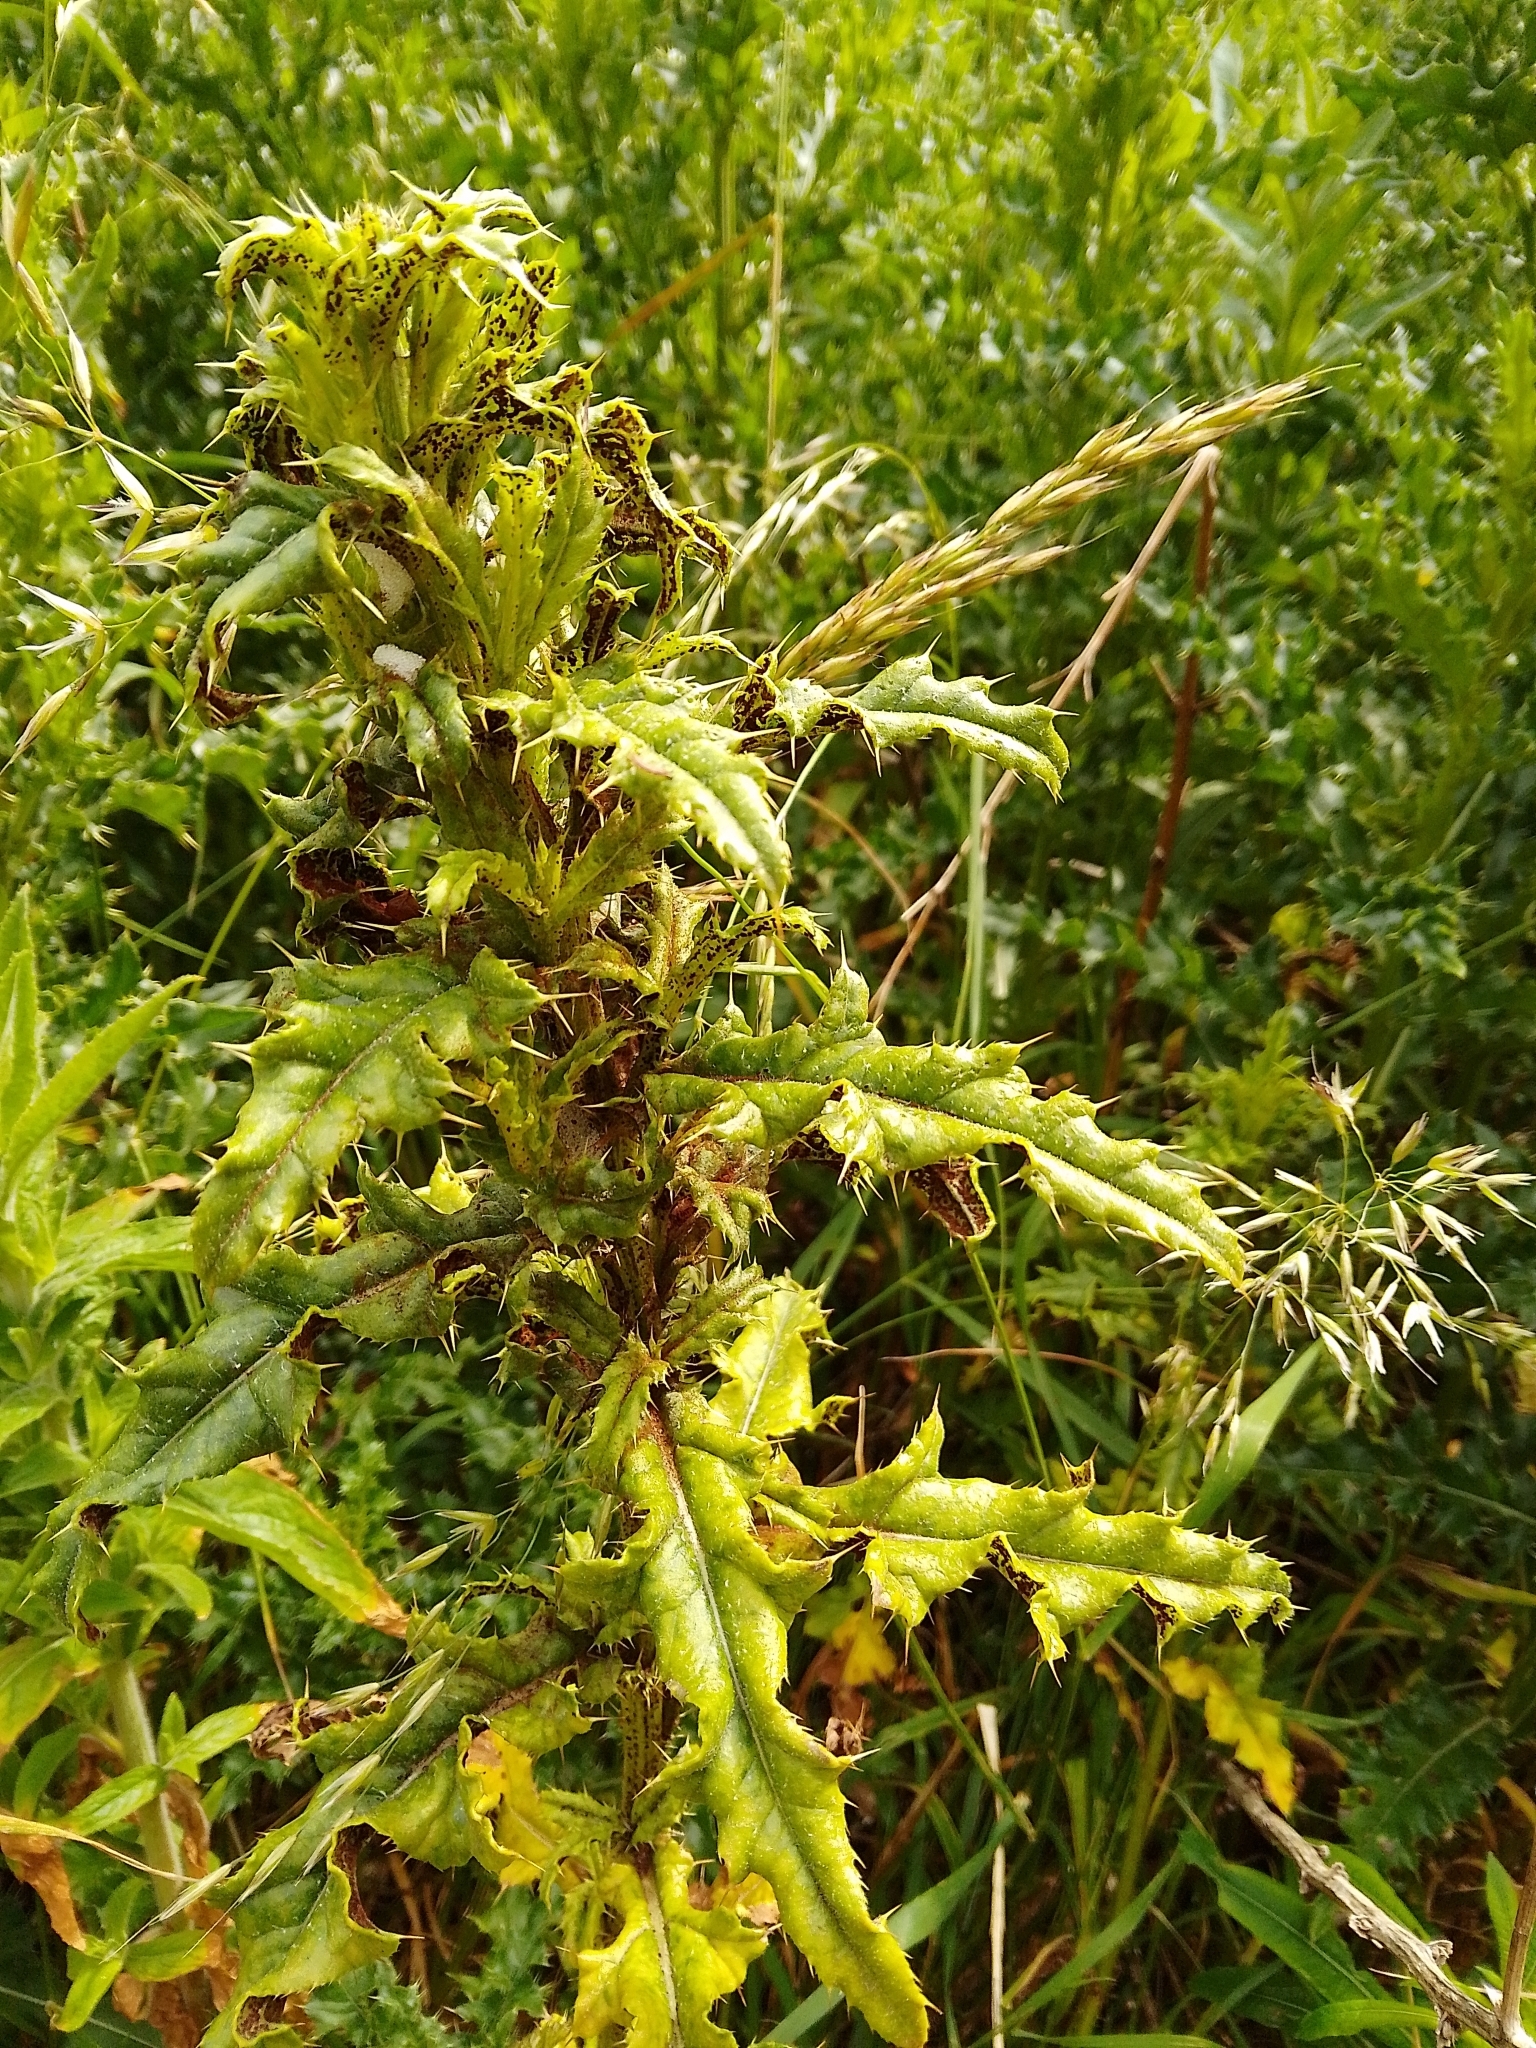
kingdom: Fungi
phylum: Basidiomycota
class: Pucciniomycetes
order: Pucciniales
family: Pucciniaceae
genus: Puccinia
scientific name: Puccinia suaveolens
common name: Thistle rust
